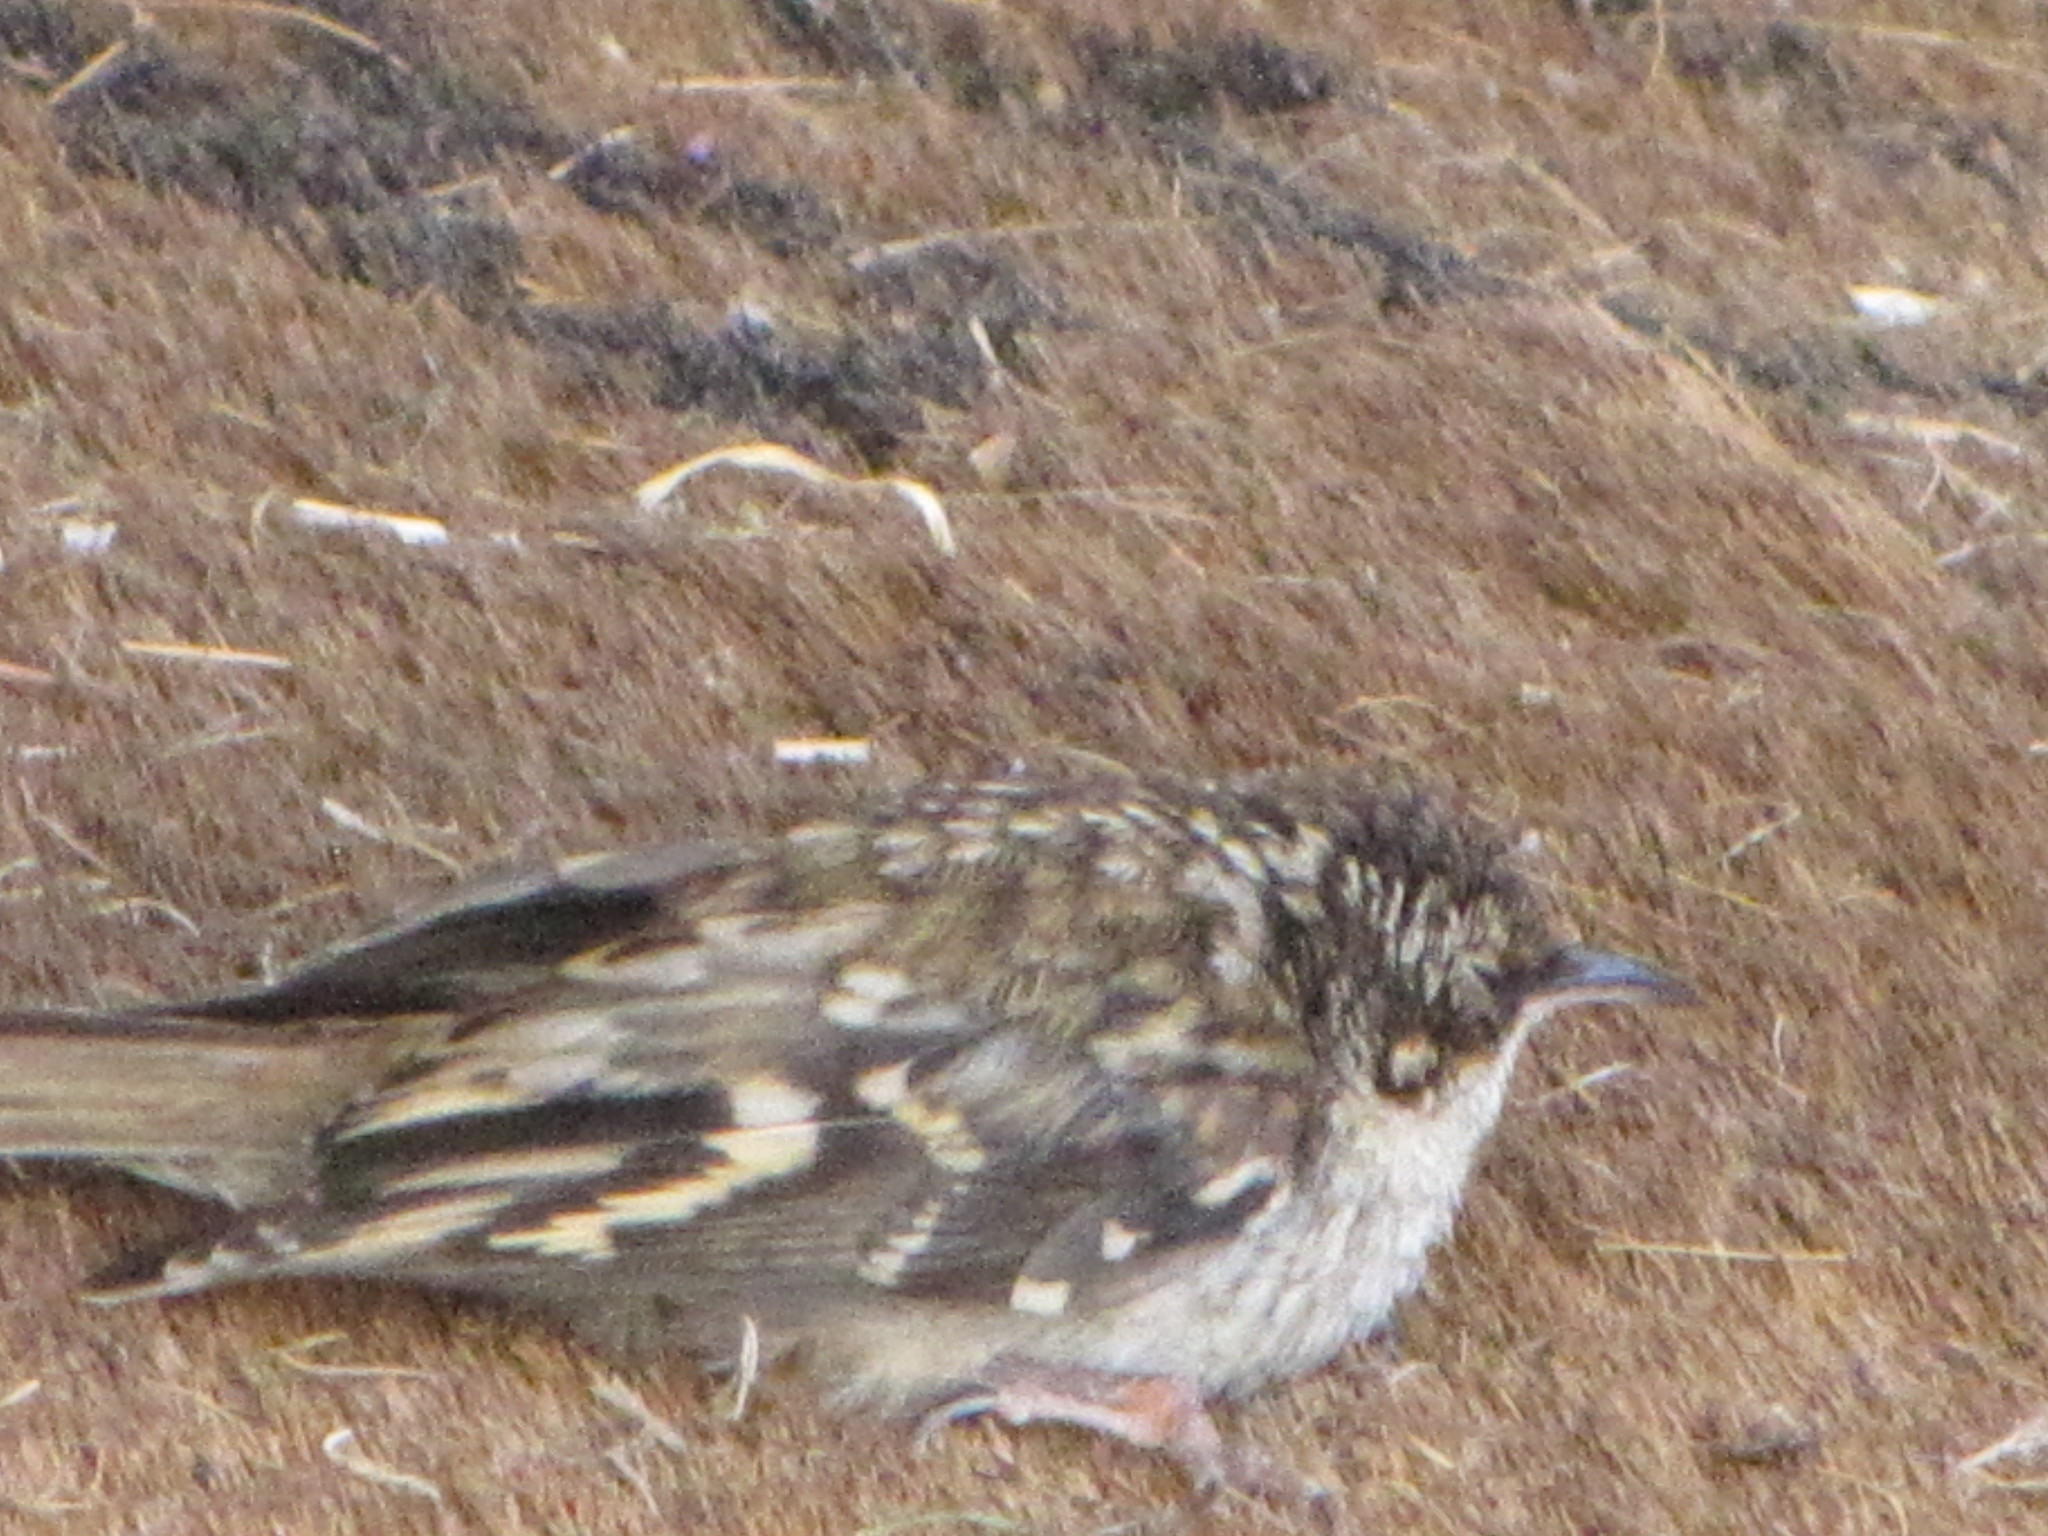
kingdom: Animalia
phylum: Chordata
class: Aves
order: Passeriformes
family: Certhiidae
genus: Certhia
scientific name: Certhia americana
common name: Brown creeper
